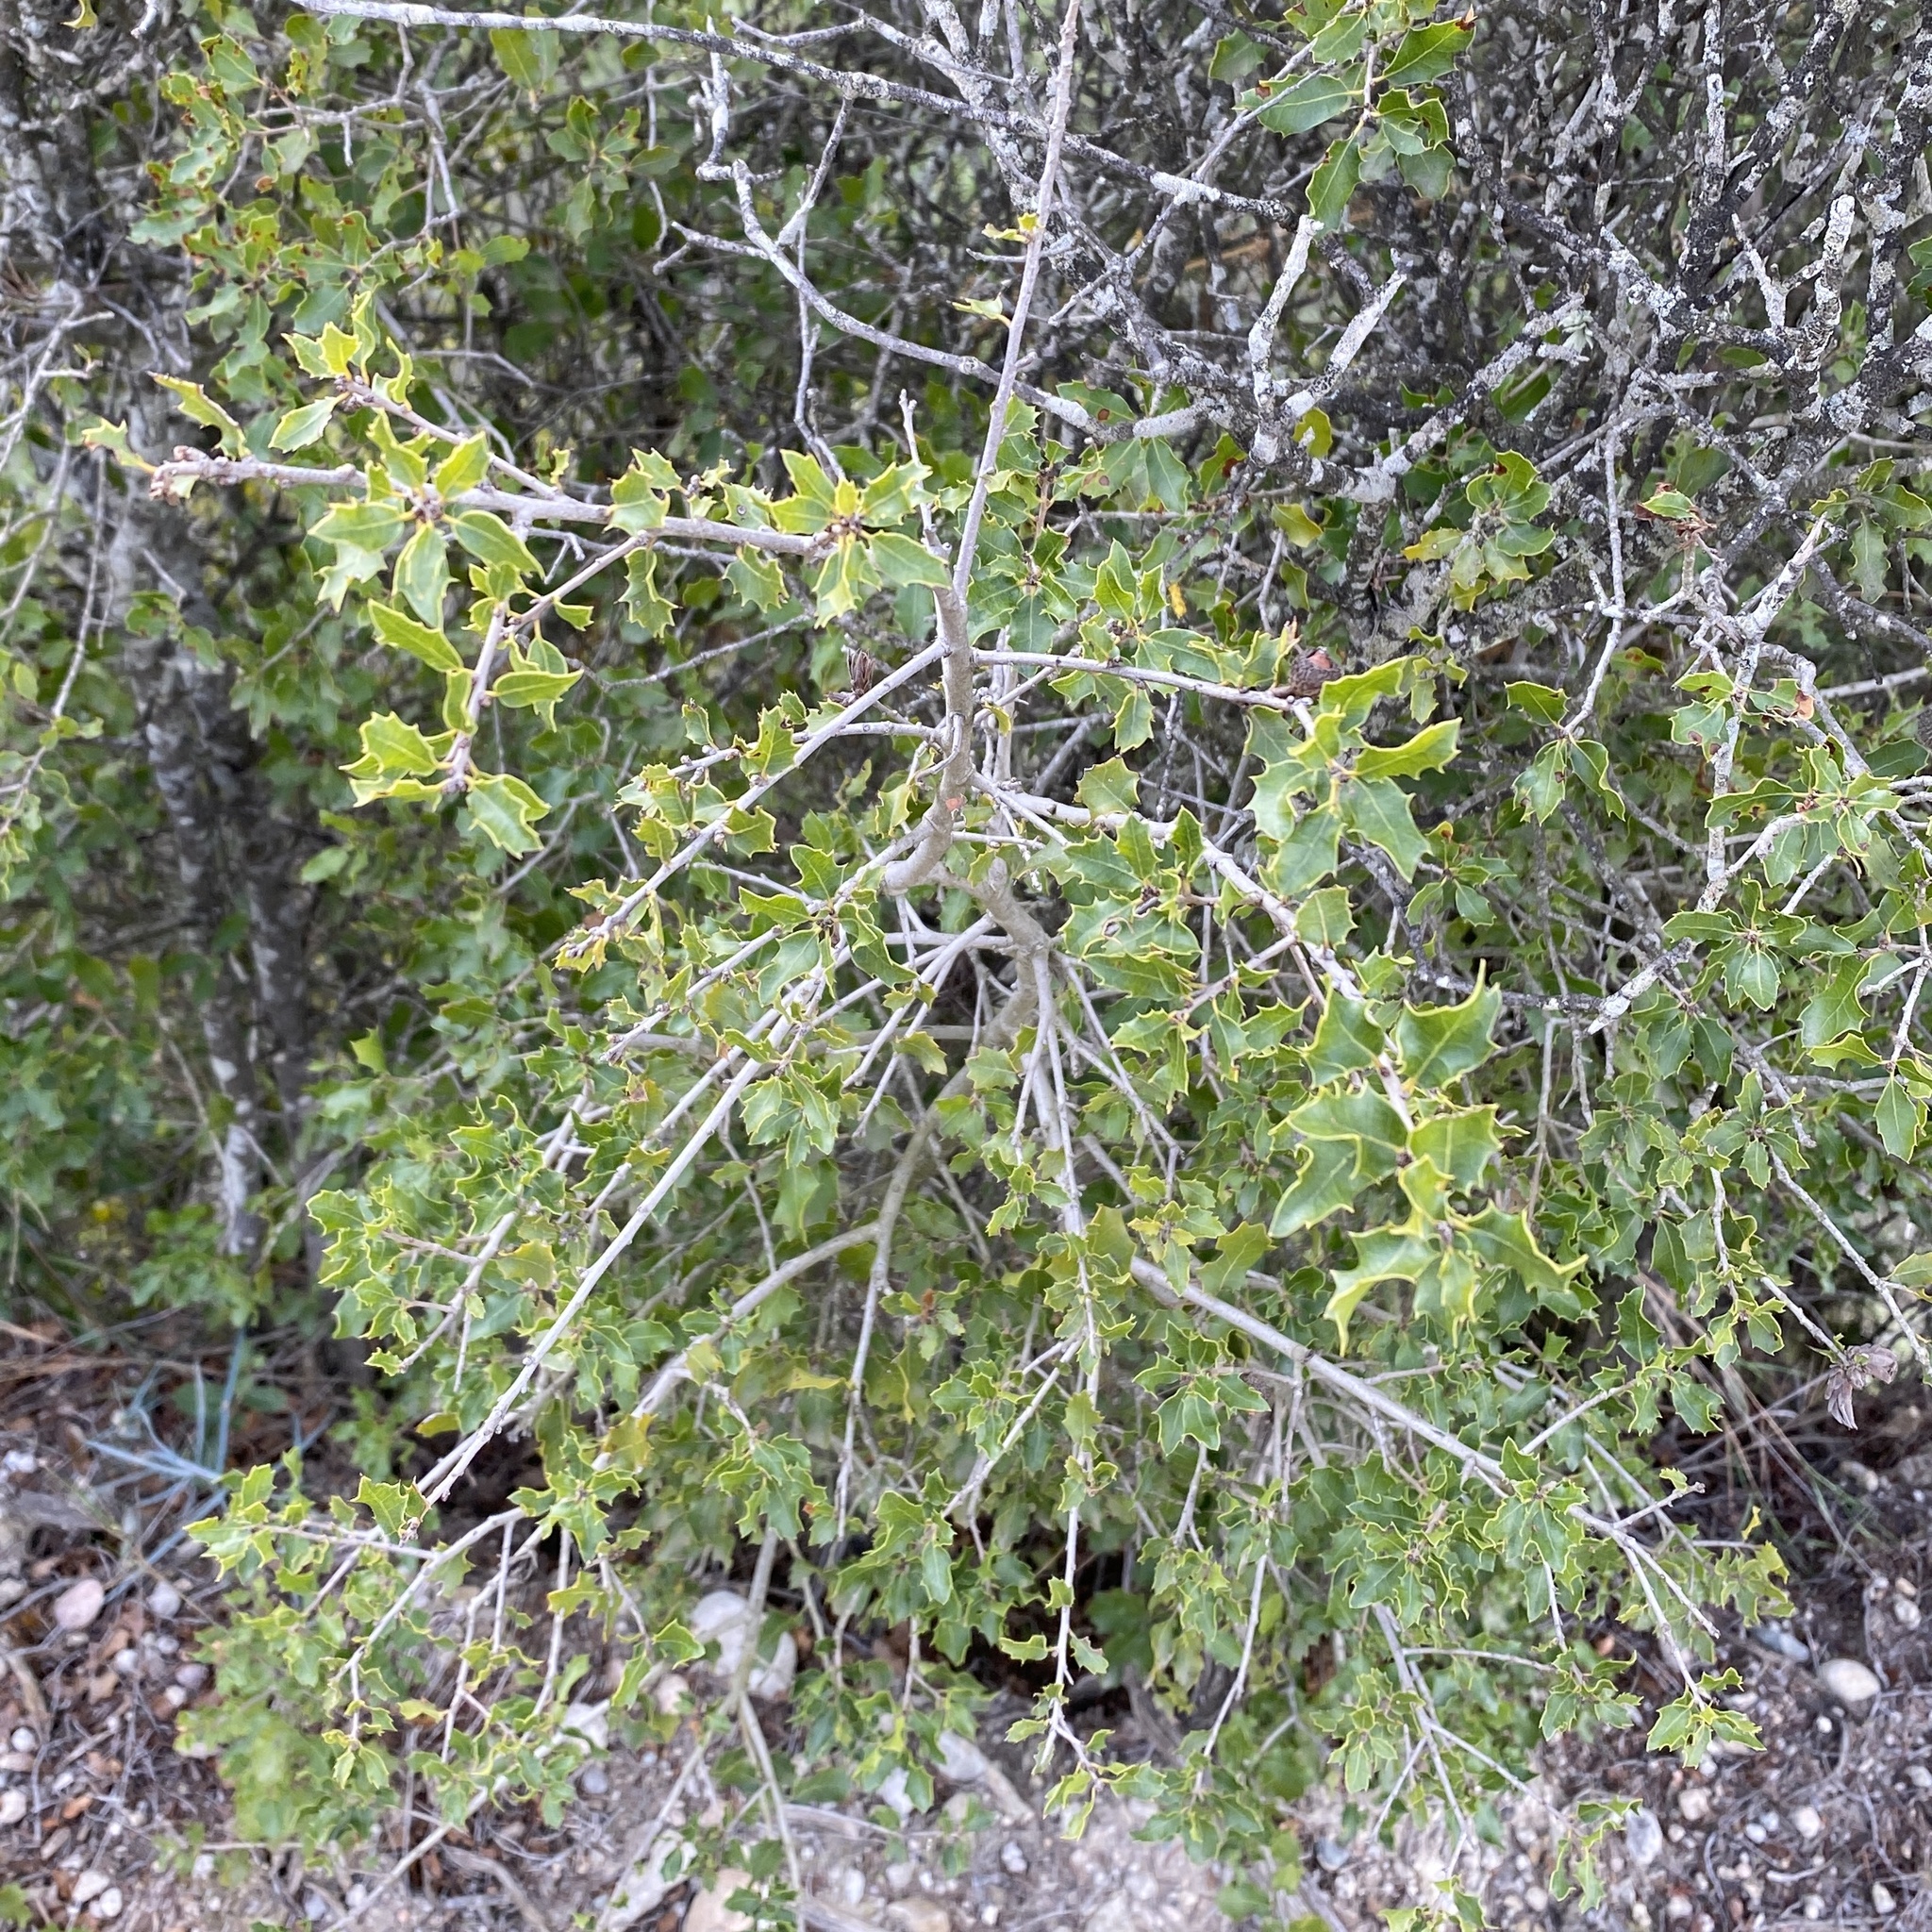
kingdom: Plantae
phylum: Tracheophyta
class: Magnoliopsida
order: Fagales
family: Fagaceae
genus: Quercus
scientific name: Quercus coccifera
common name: Kermes oak
